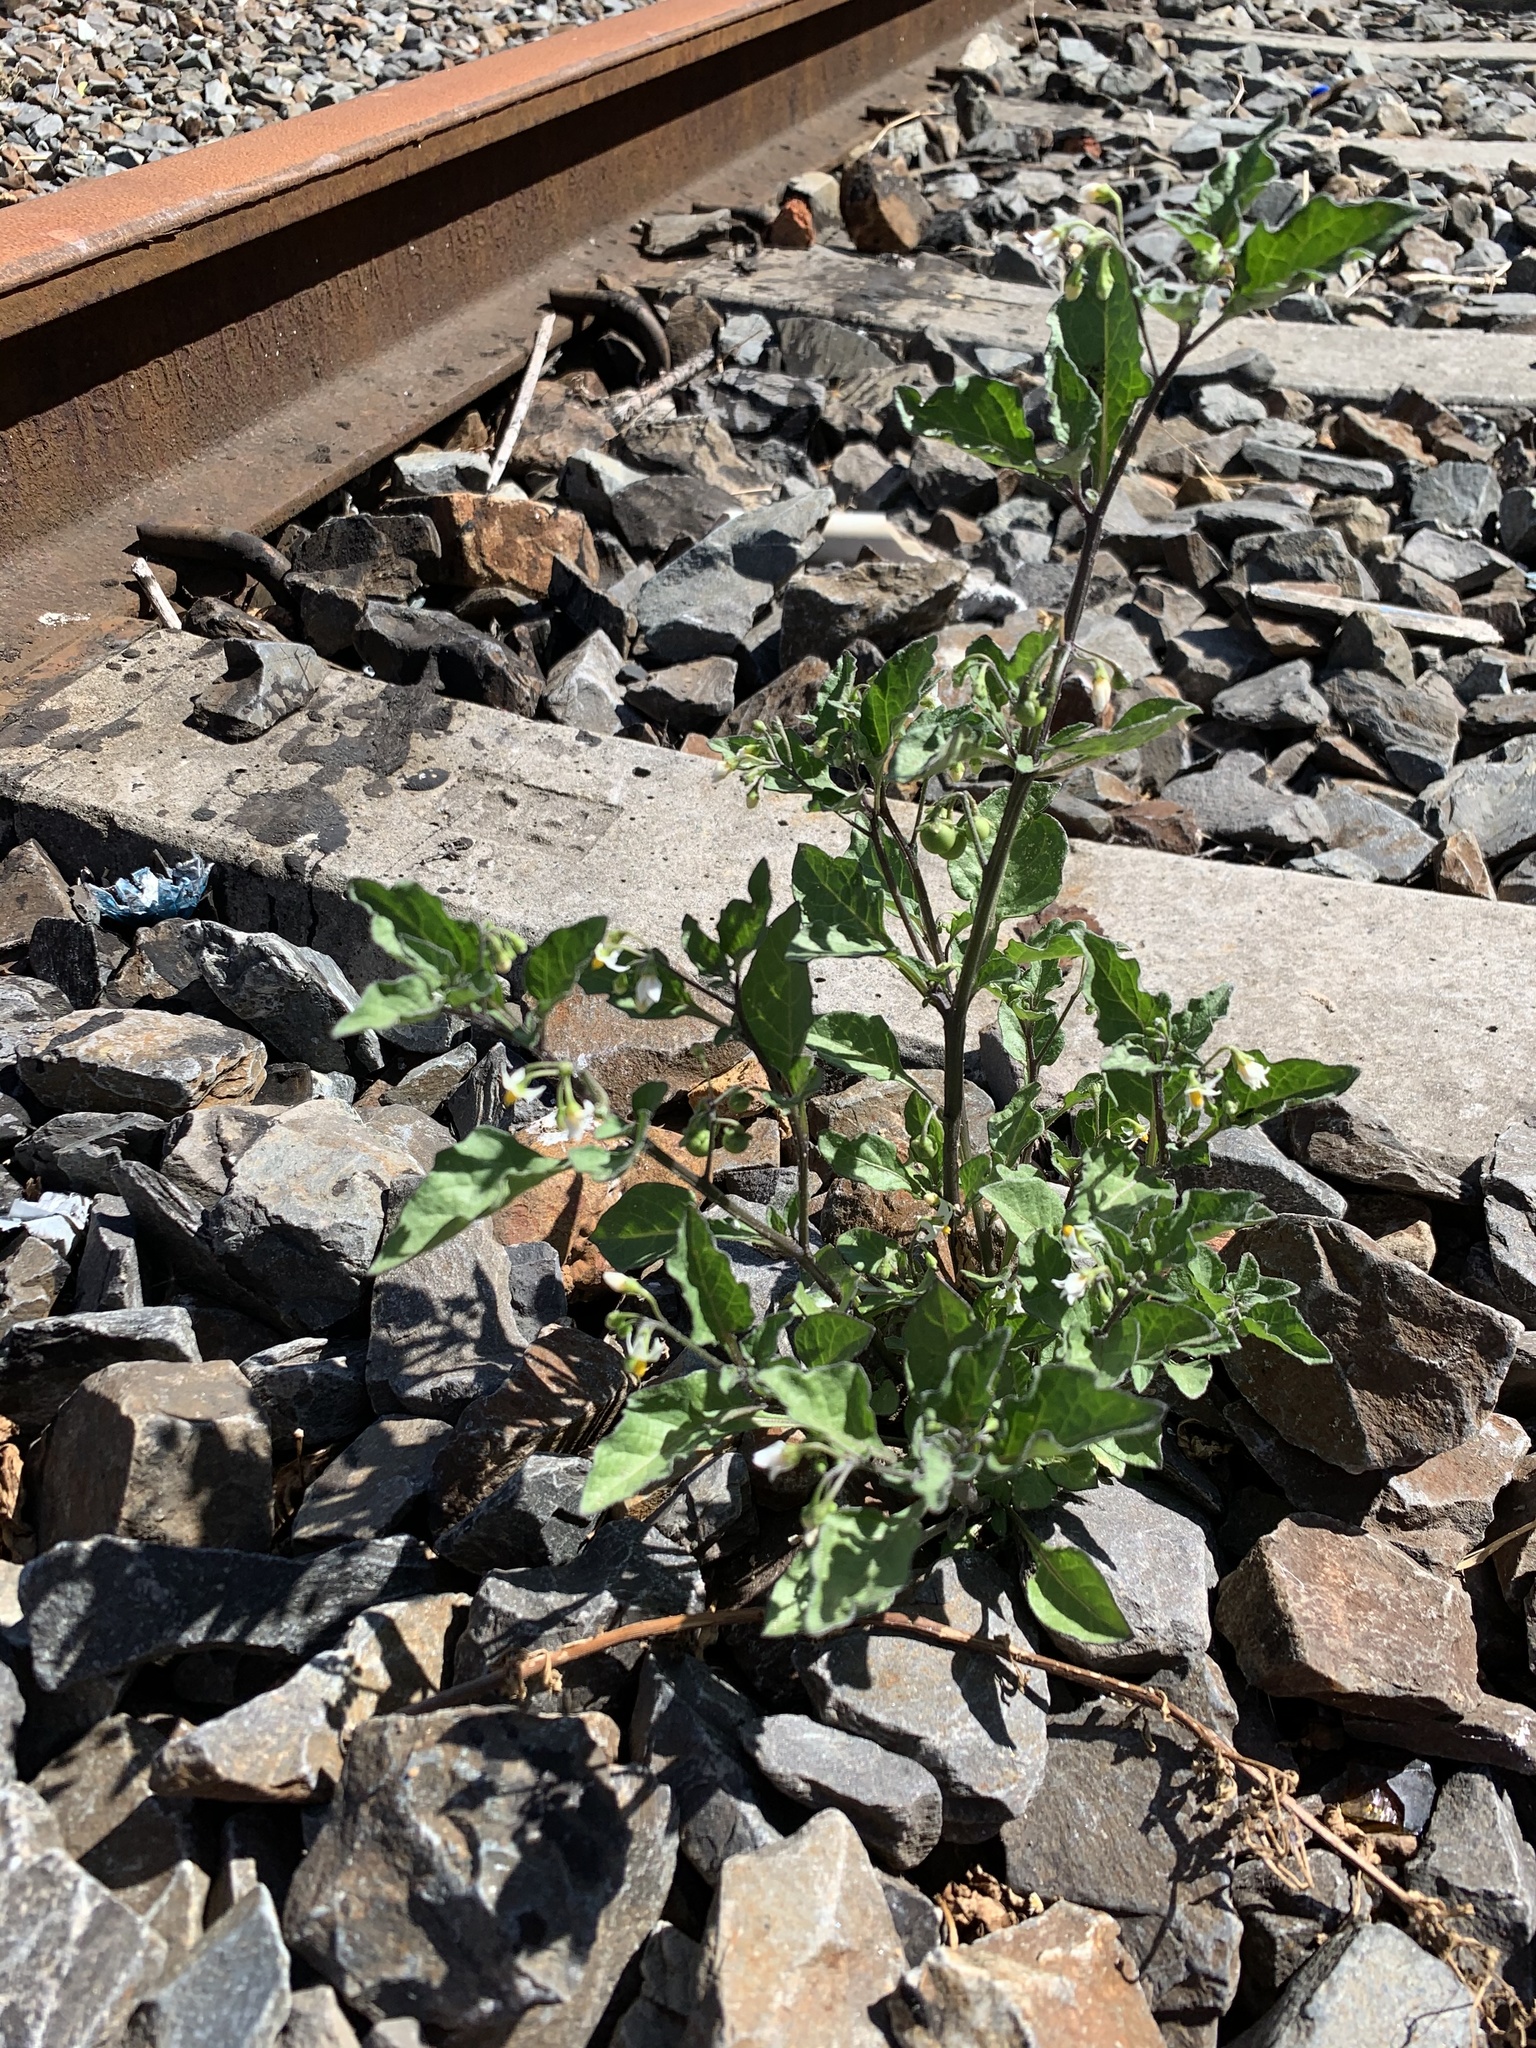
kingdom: Plantae
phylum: Tracheophyta
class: Magnoliopsida
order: Solanales
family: Solanaceae
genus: Solanum
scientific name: Solanum nigrum
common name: Black nightshade
